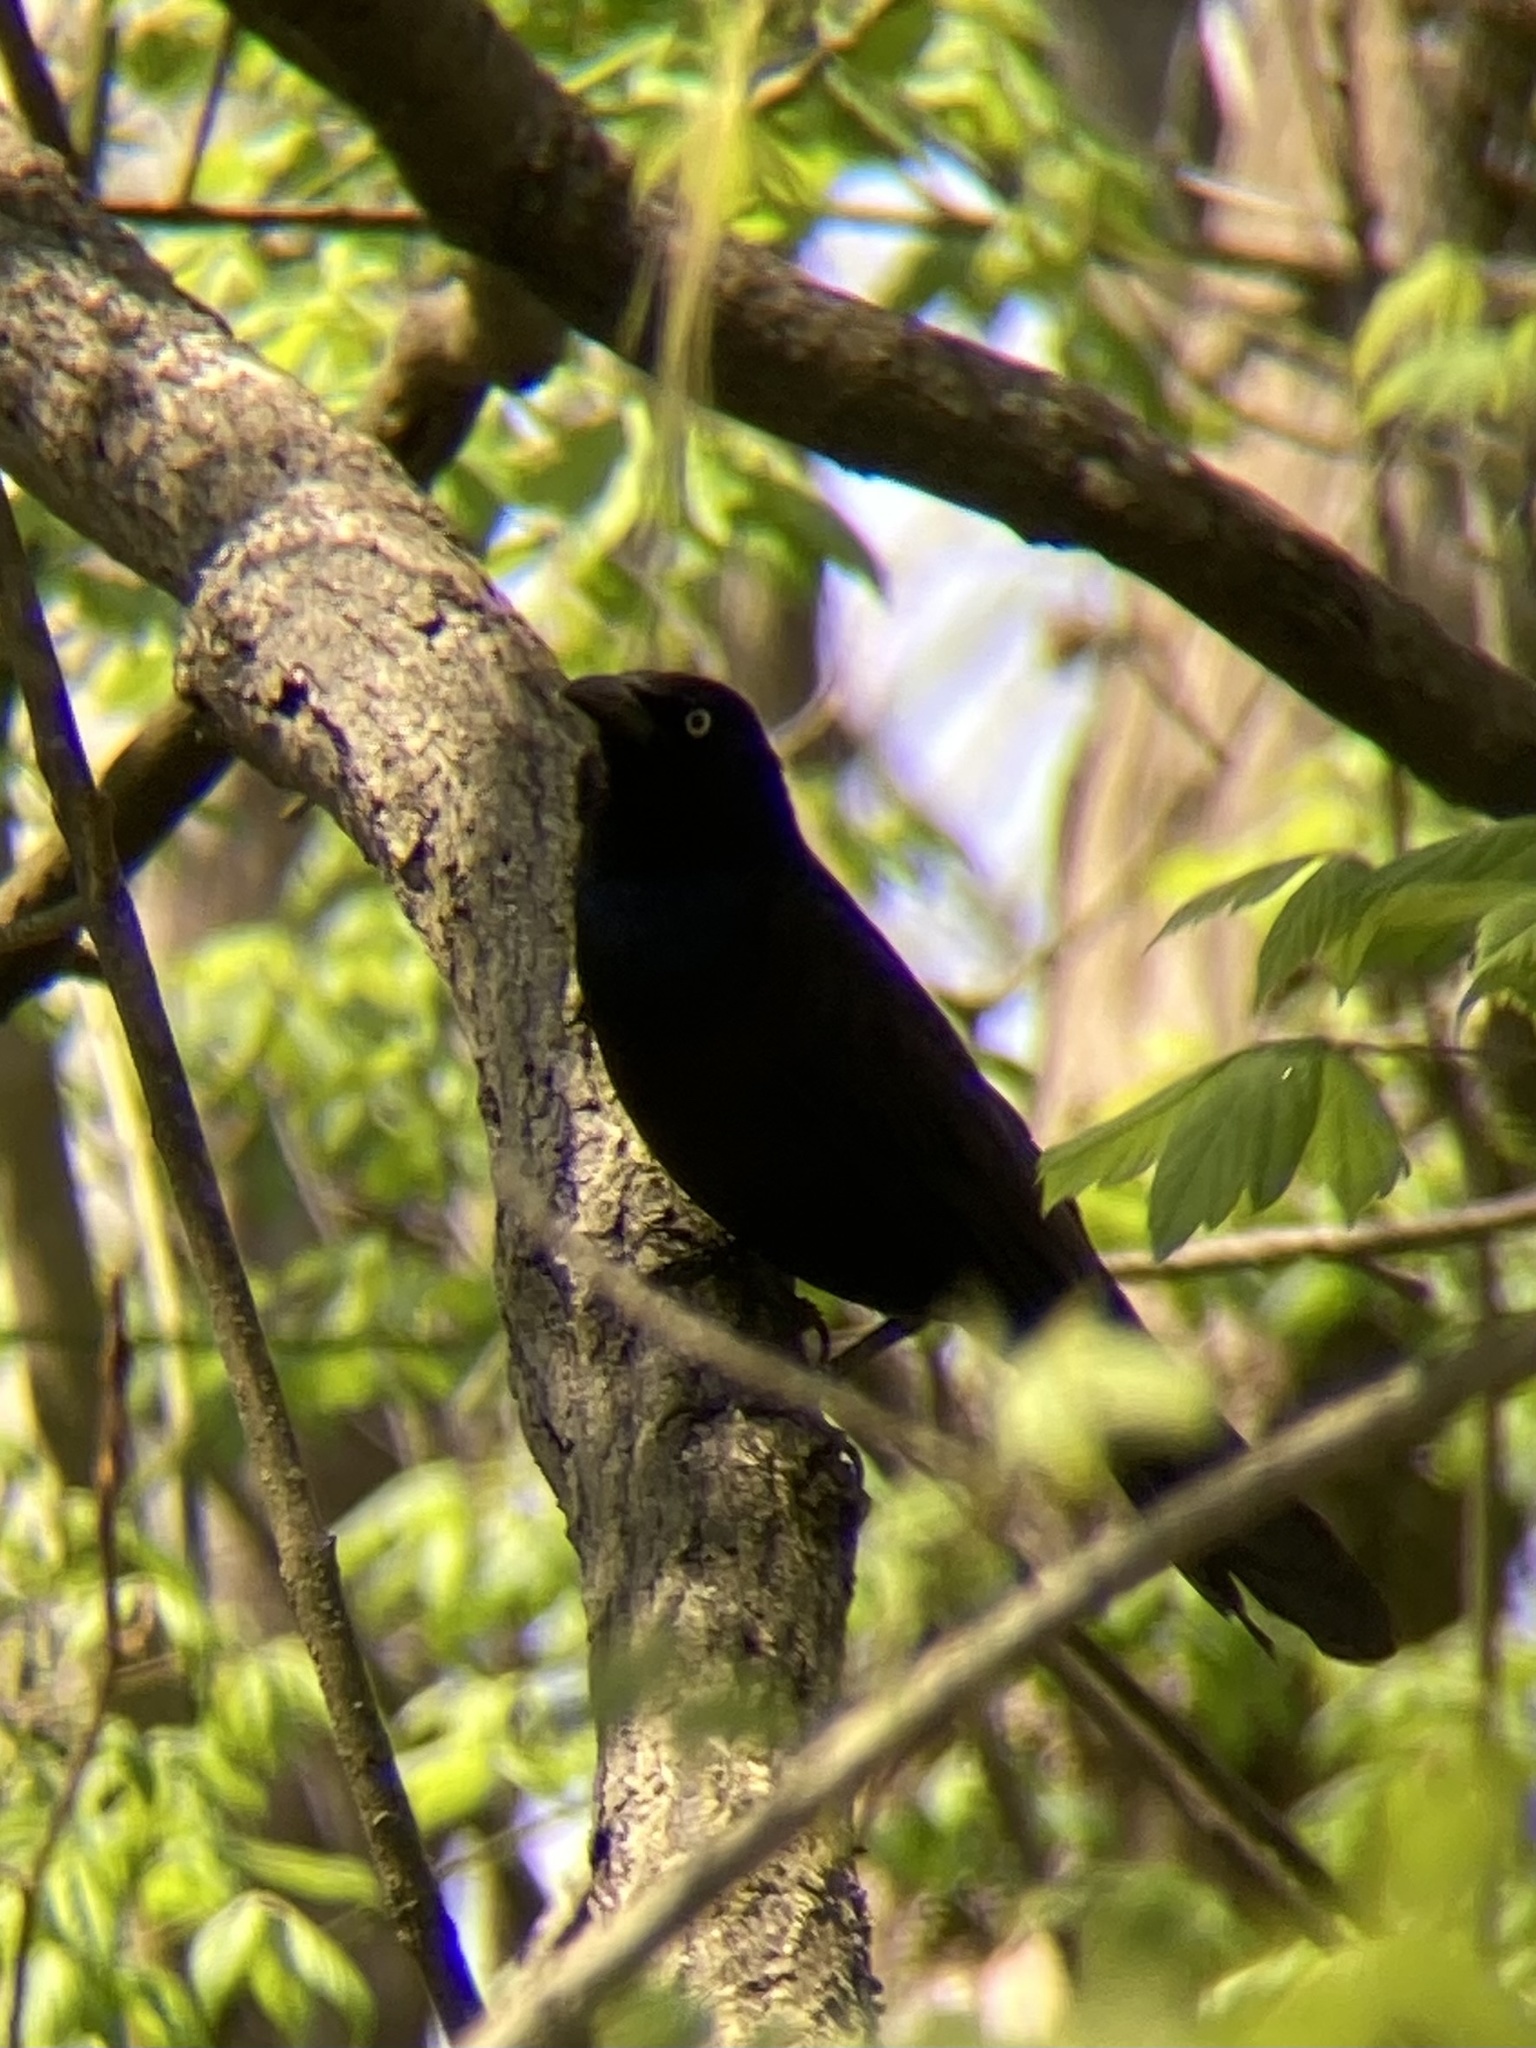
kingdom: Animalia
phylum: Chordata
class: Aves
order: Passeriformes
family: Icteridae
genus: Quiscalus
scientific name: Quiscalus quiscula
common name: Common grackle
